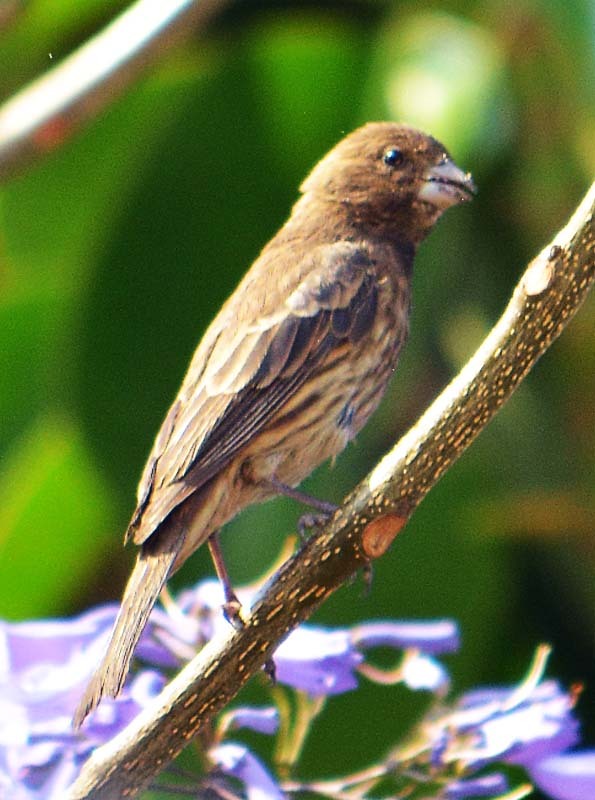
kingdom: Animalia
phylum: Chordata
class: Aves
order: Passeriformes
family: Fringillidae
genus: Haemorhous
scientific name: Haemorhous mexicanus
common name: House finch
